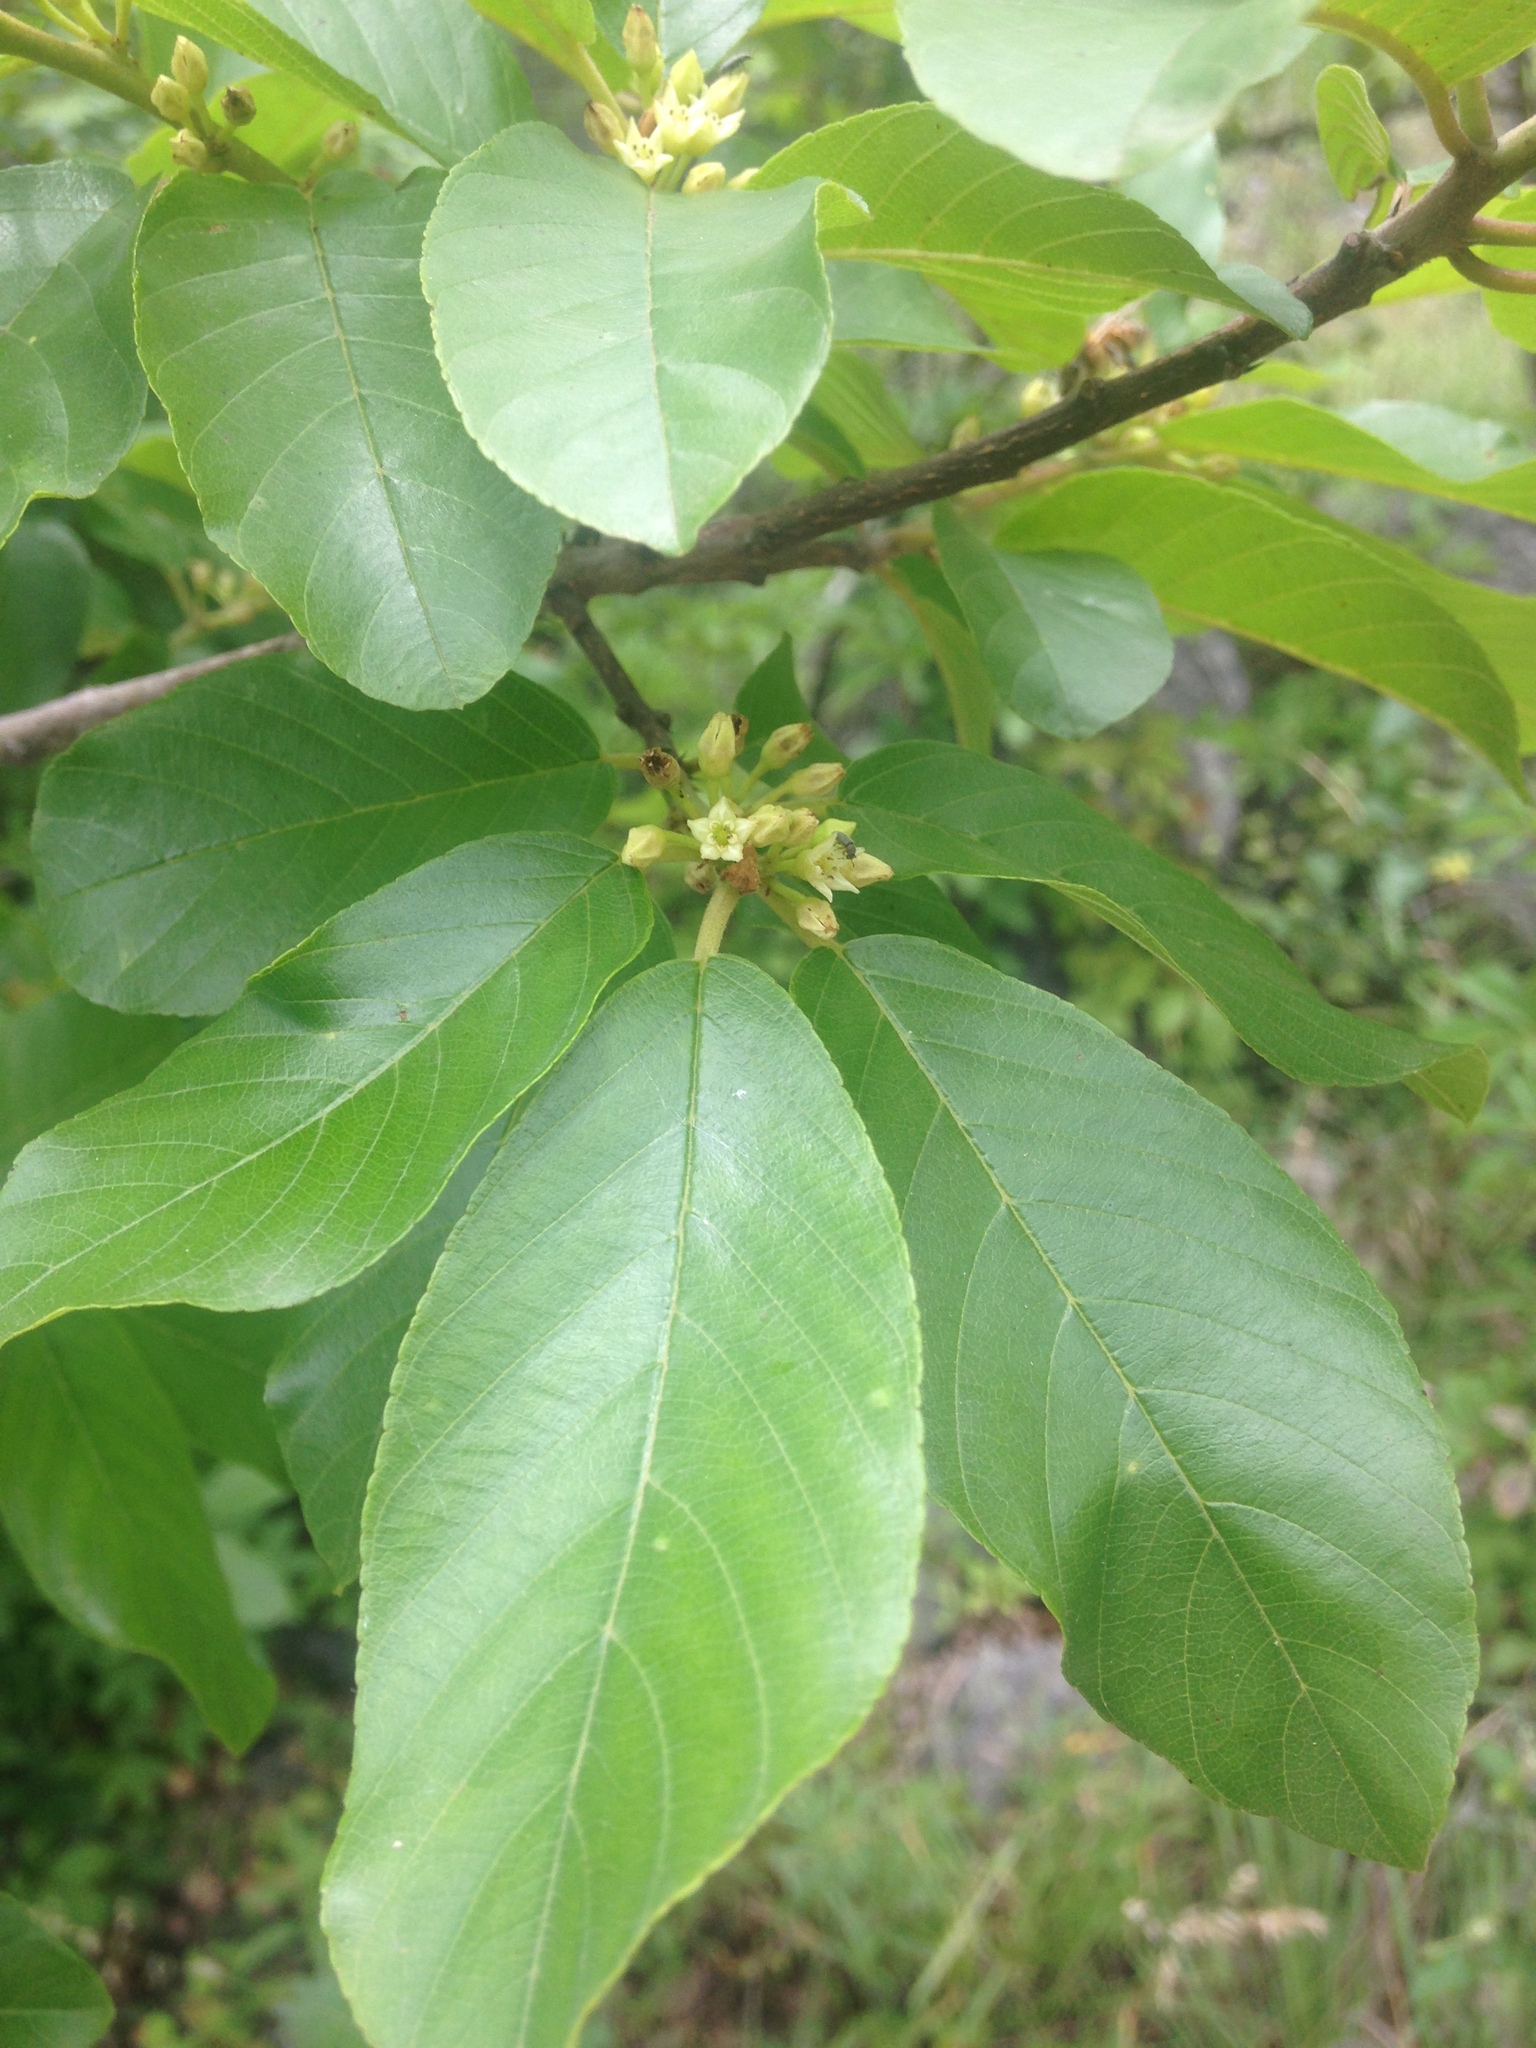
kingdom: Plantae
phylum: Tracheophyta
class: Magnoliopsida
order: Rosales
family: Rhamnaceae
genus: Frangula
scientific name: Frangula caroliniana
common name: Carolina buckthorn
